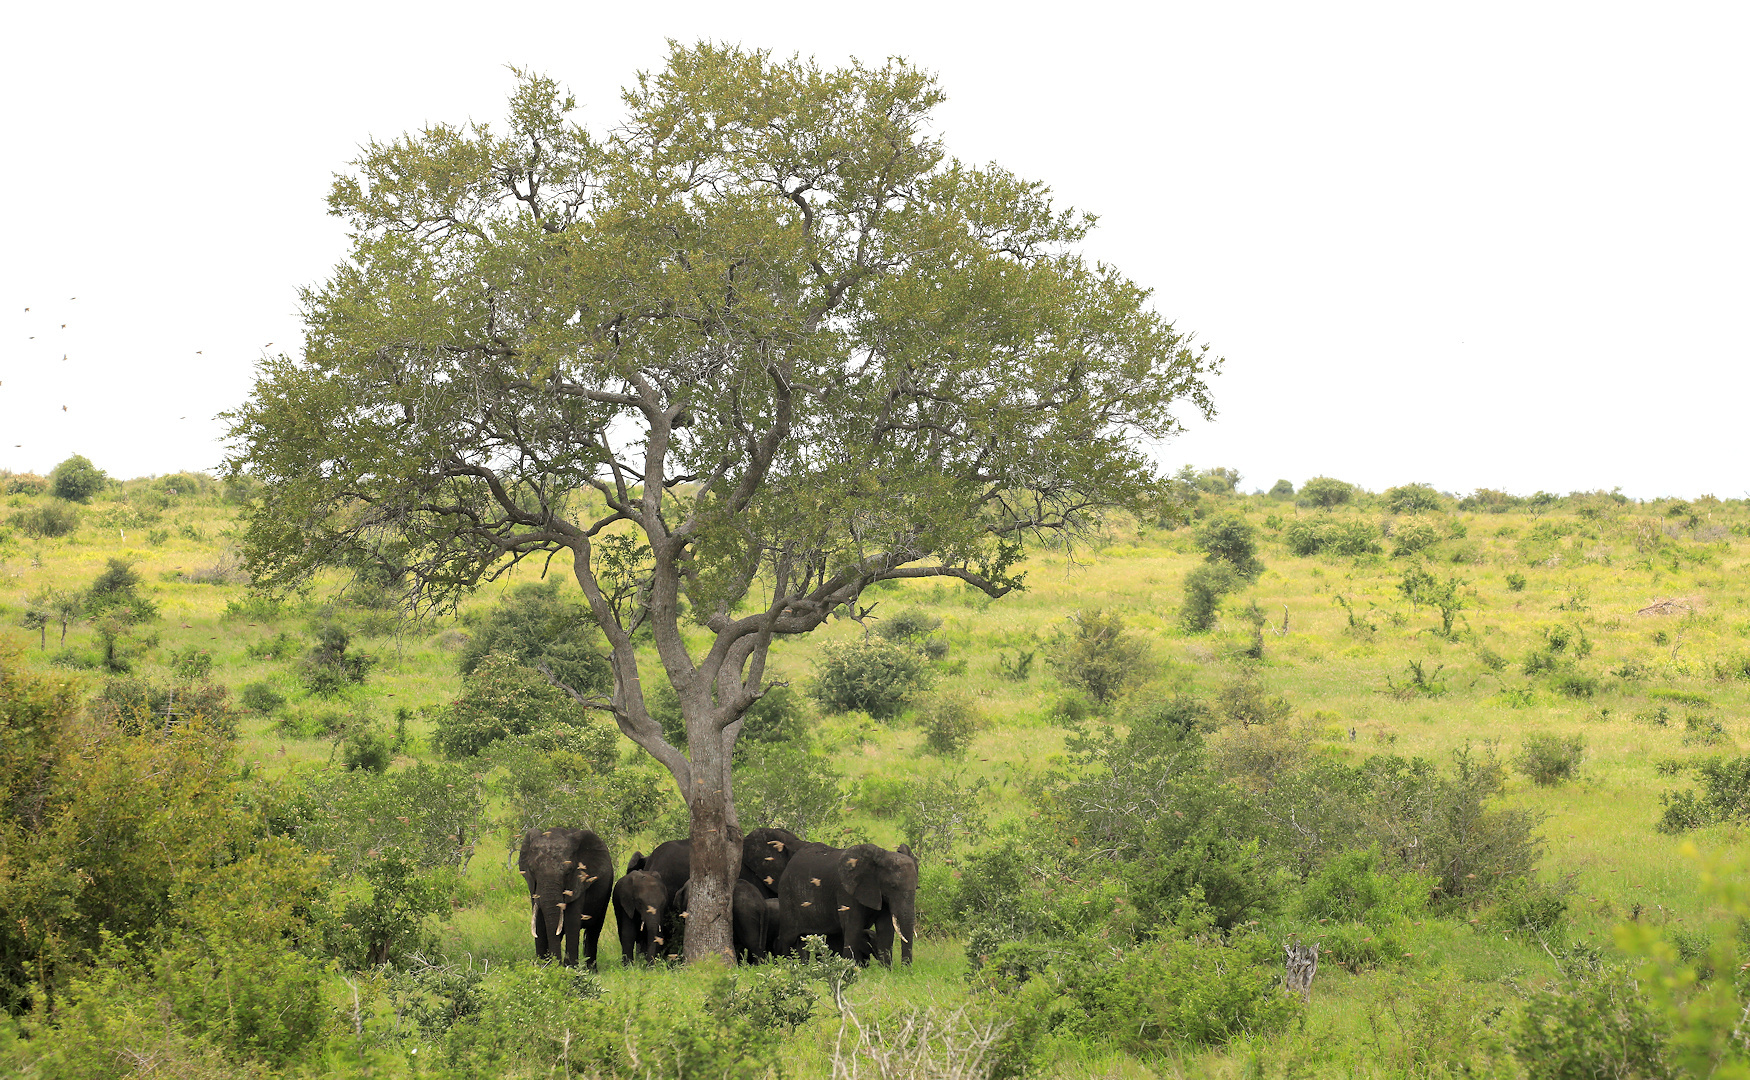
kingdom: Plantae
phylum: Tracheophyta
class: Magnoliopsida
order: Myrtales
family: Combretaceae
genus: Combretum
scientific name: Combretum imberbe
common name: Leadwood
